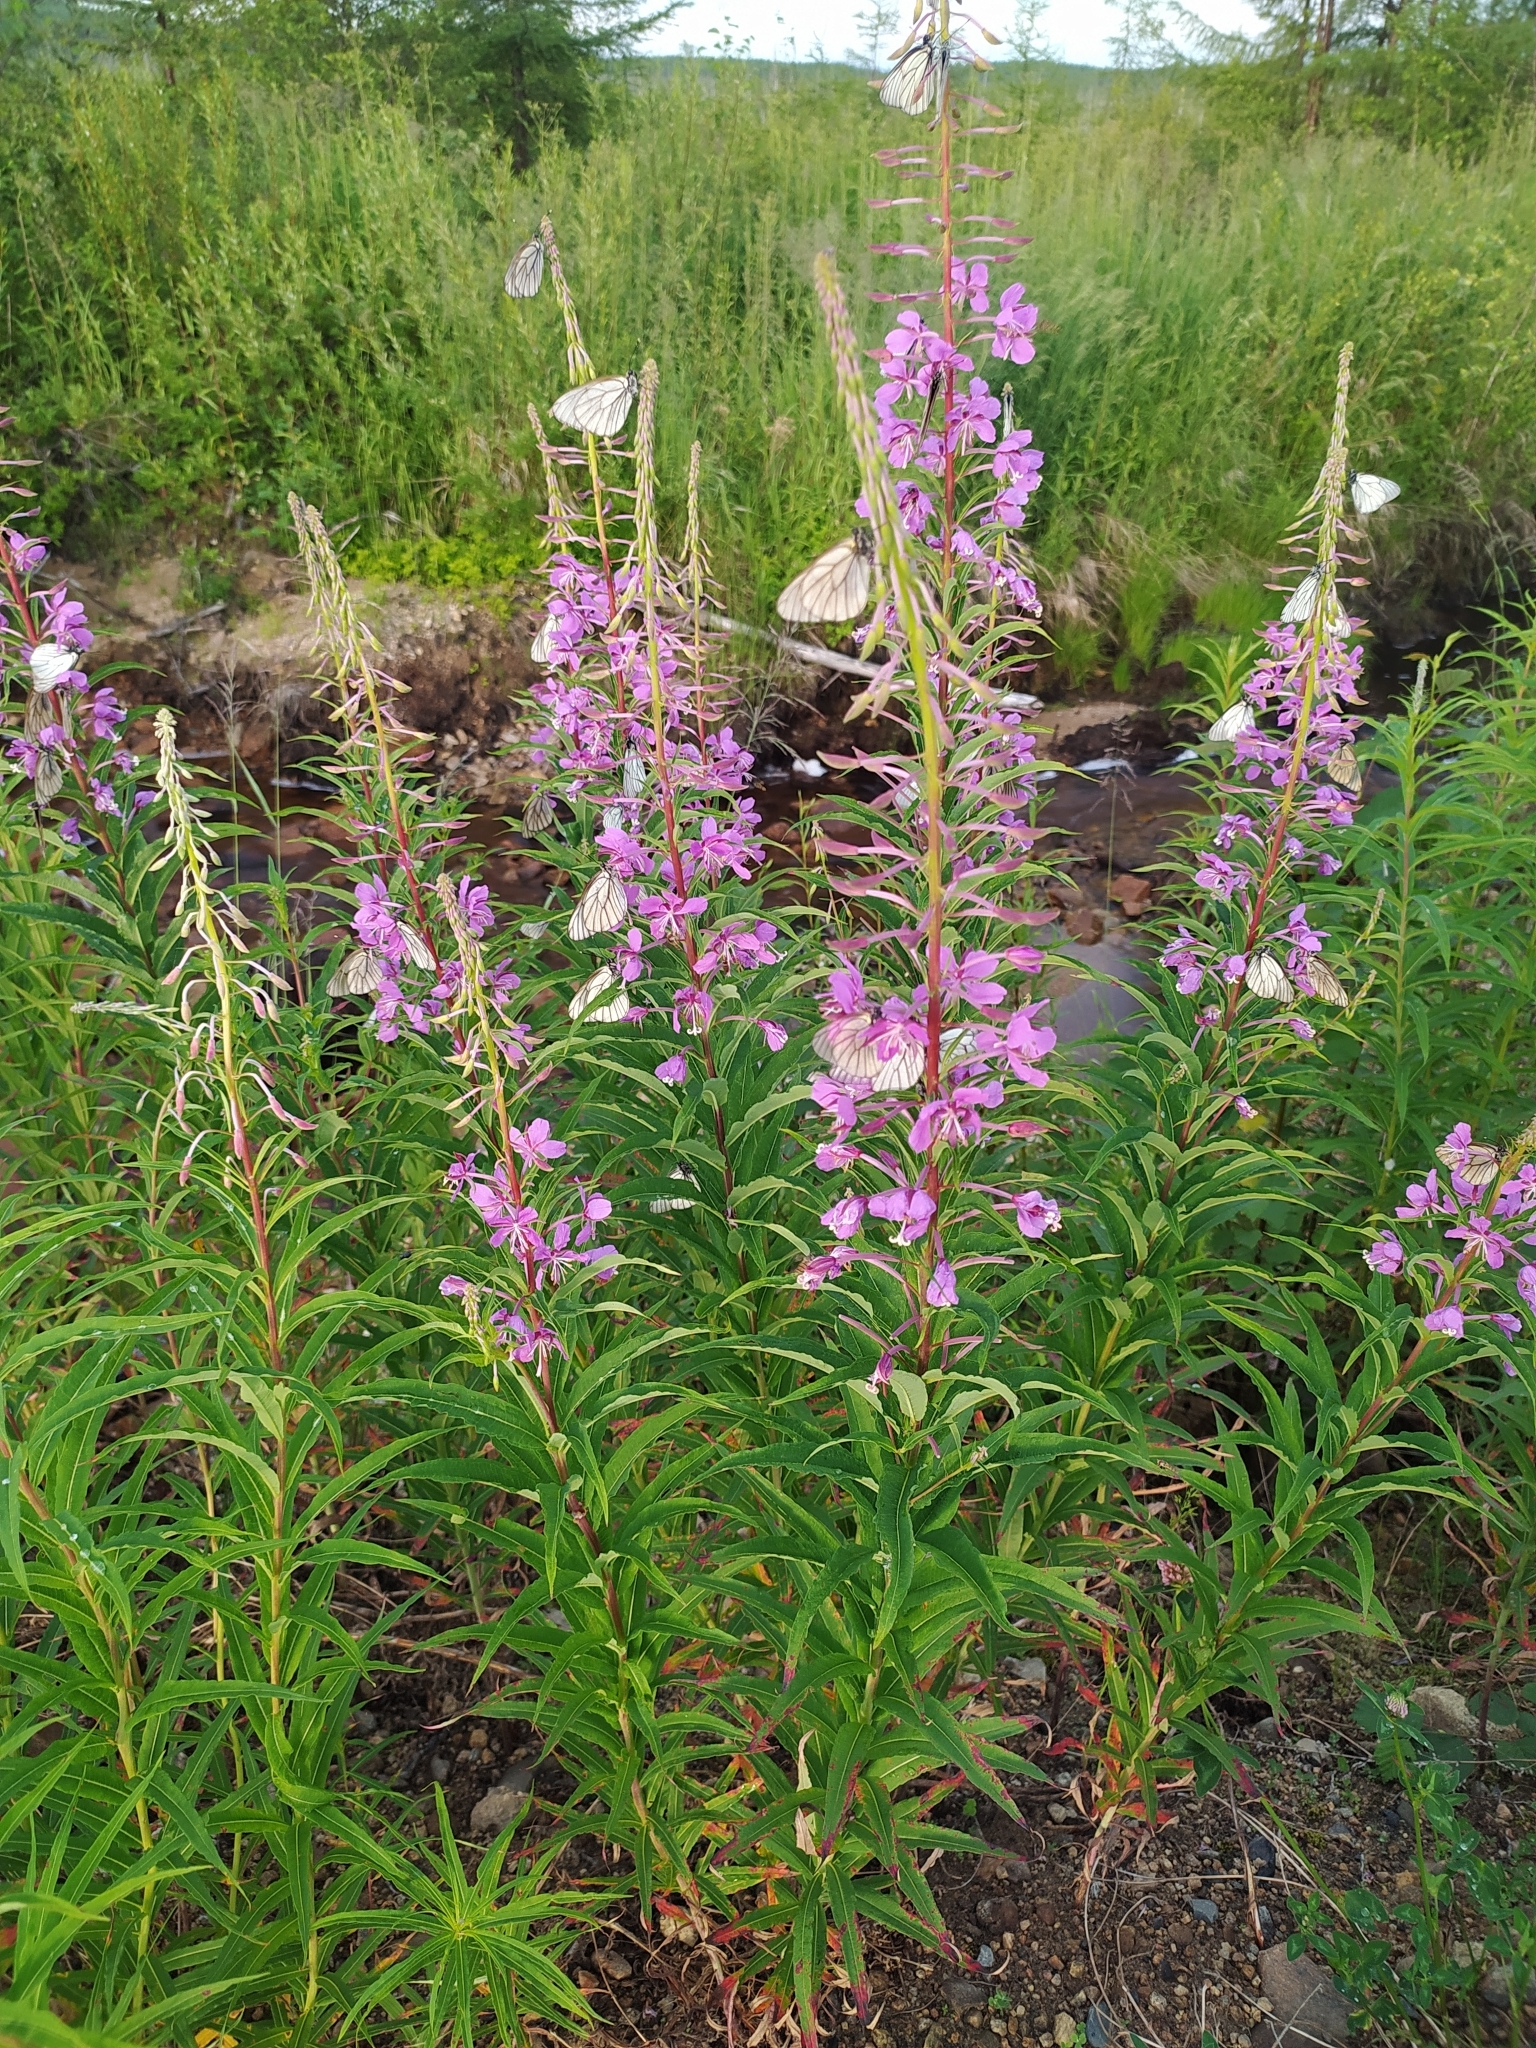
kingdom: Plantae
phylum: Tracheophyta
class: Magnoliopsida
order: Myrtales
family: Onagraceae
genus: Chamaenerion
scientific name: Chamaenerion angustifolium
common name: Fireweed
